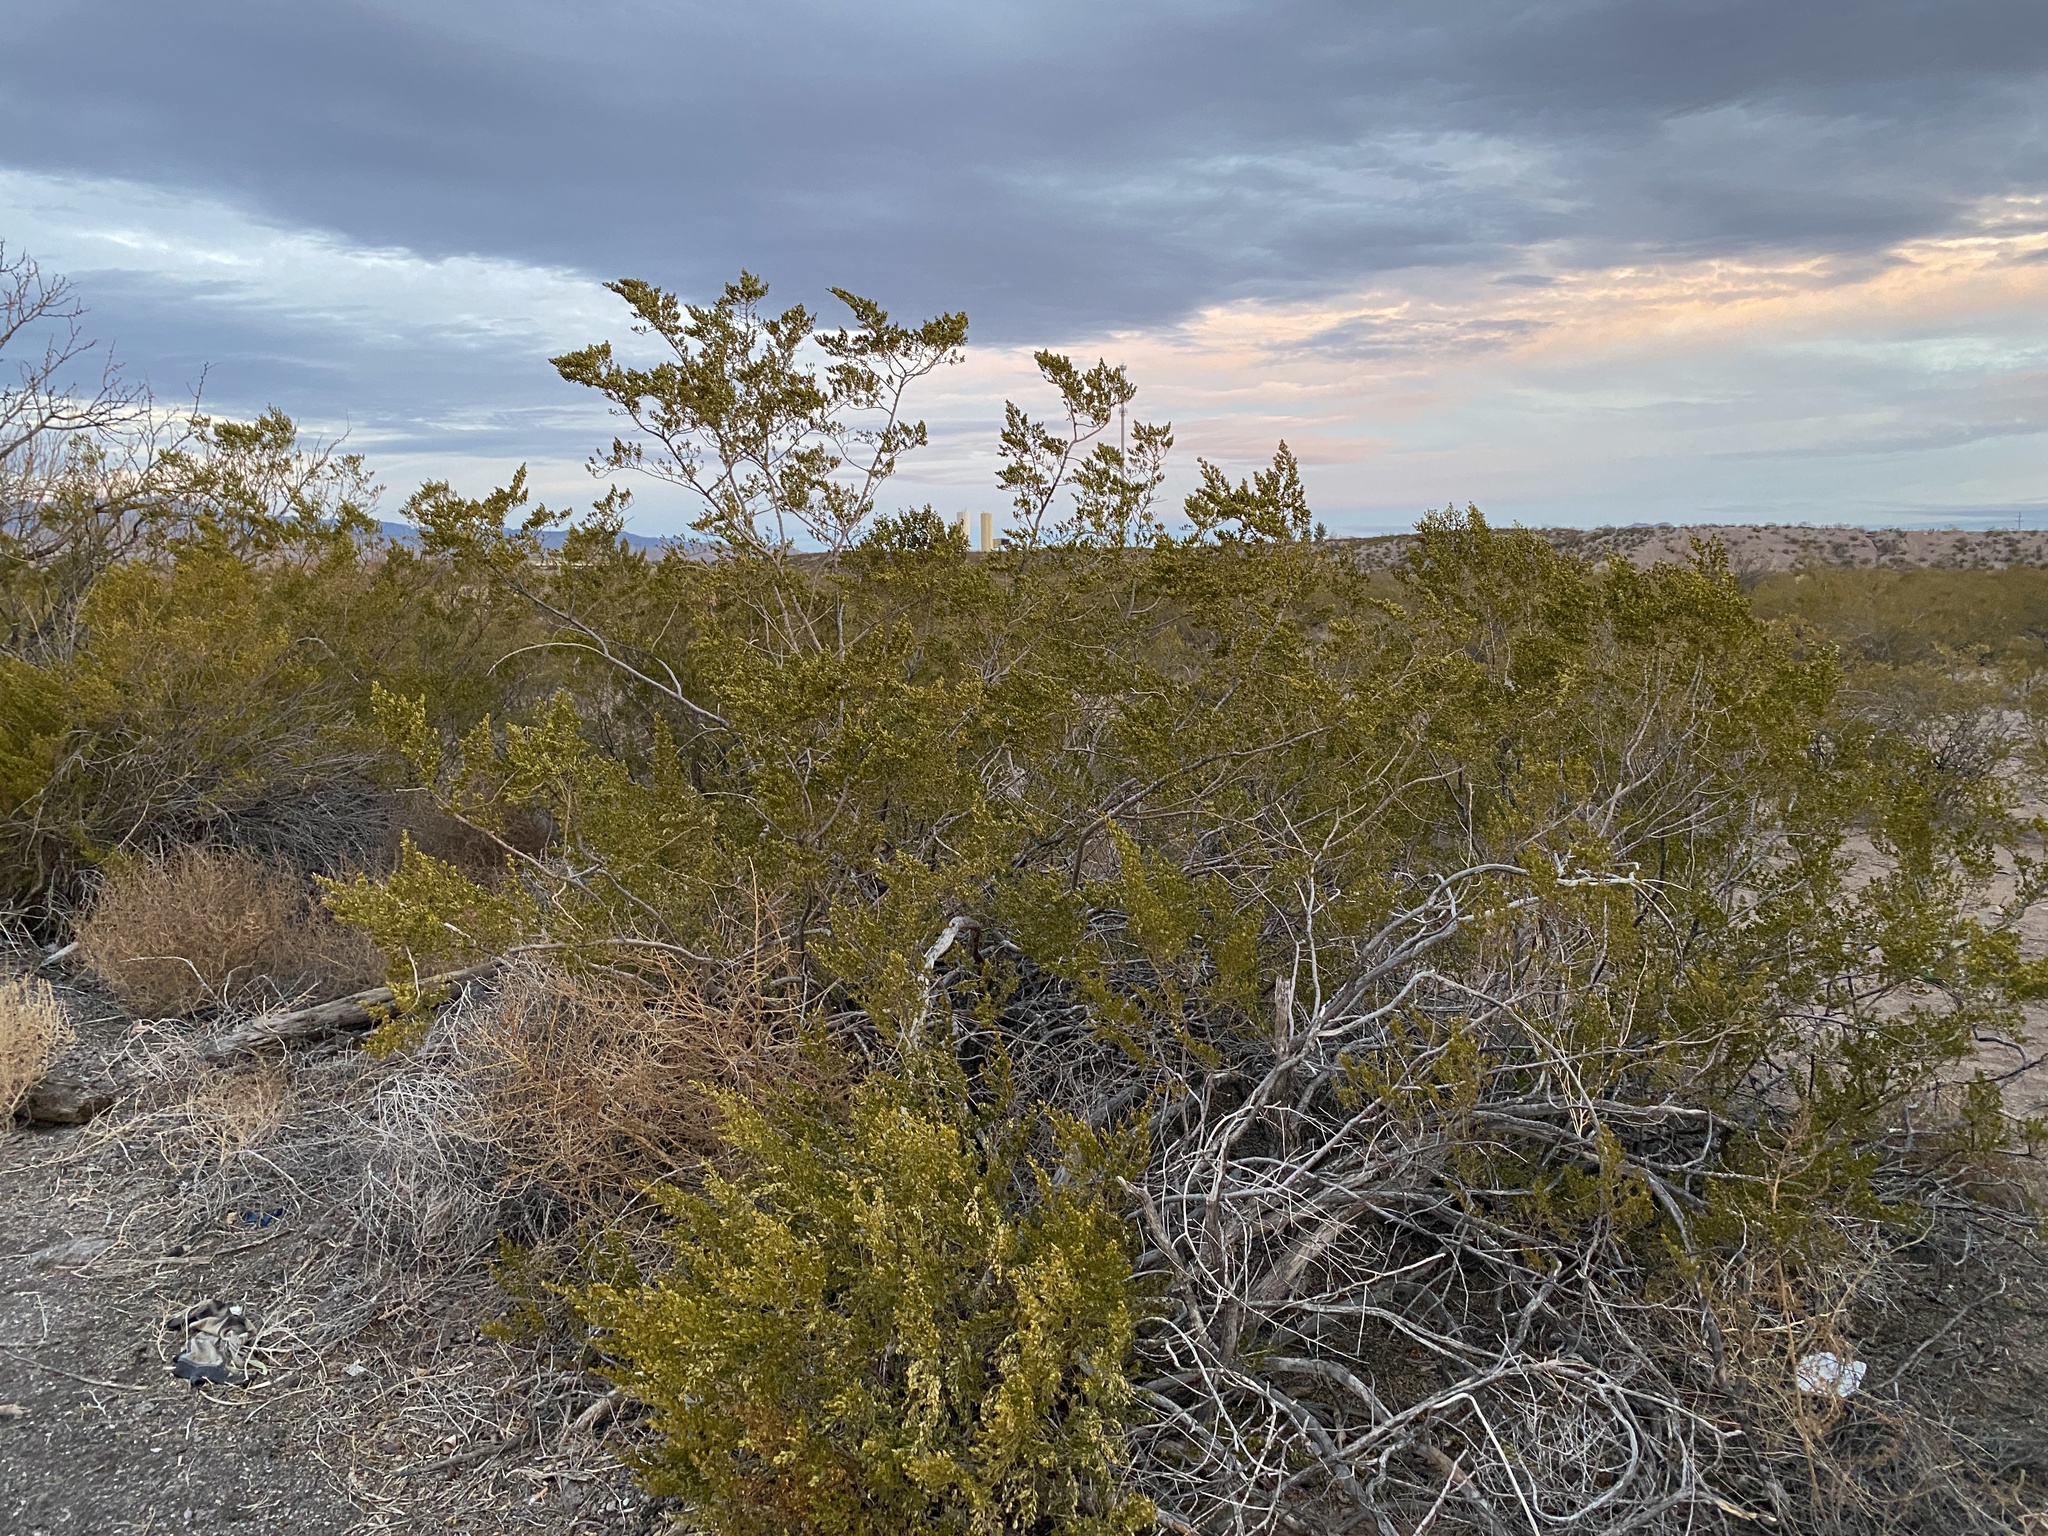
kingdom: Plantae
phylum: Tracheophyta
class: Magnoliopsida
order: Zygophyllales
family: Zygophyllaceae
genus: Larrea
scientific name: Larrea tridentata
